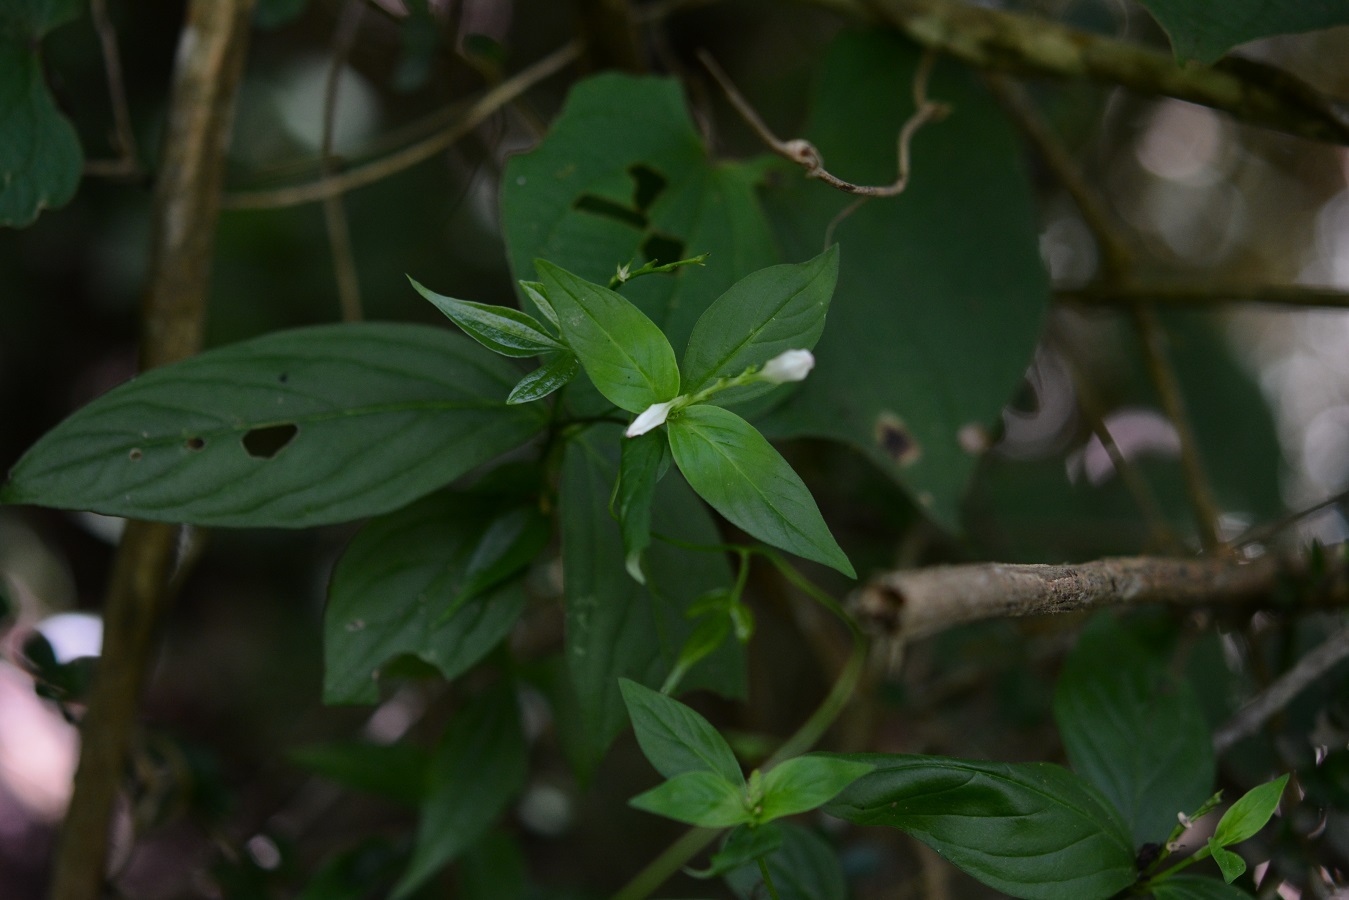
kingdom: Plantae
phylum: Tracheophyta
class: Magnoliopsida
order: Gentianales
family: Loganiaceae
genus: Spigelia
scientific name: Spigelia humboldtiana
